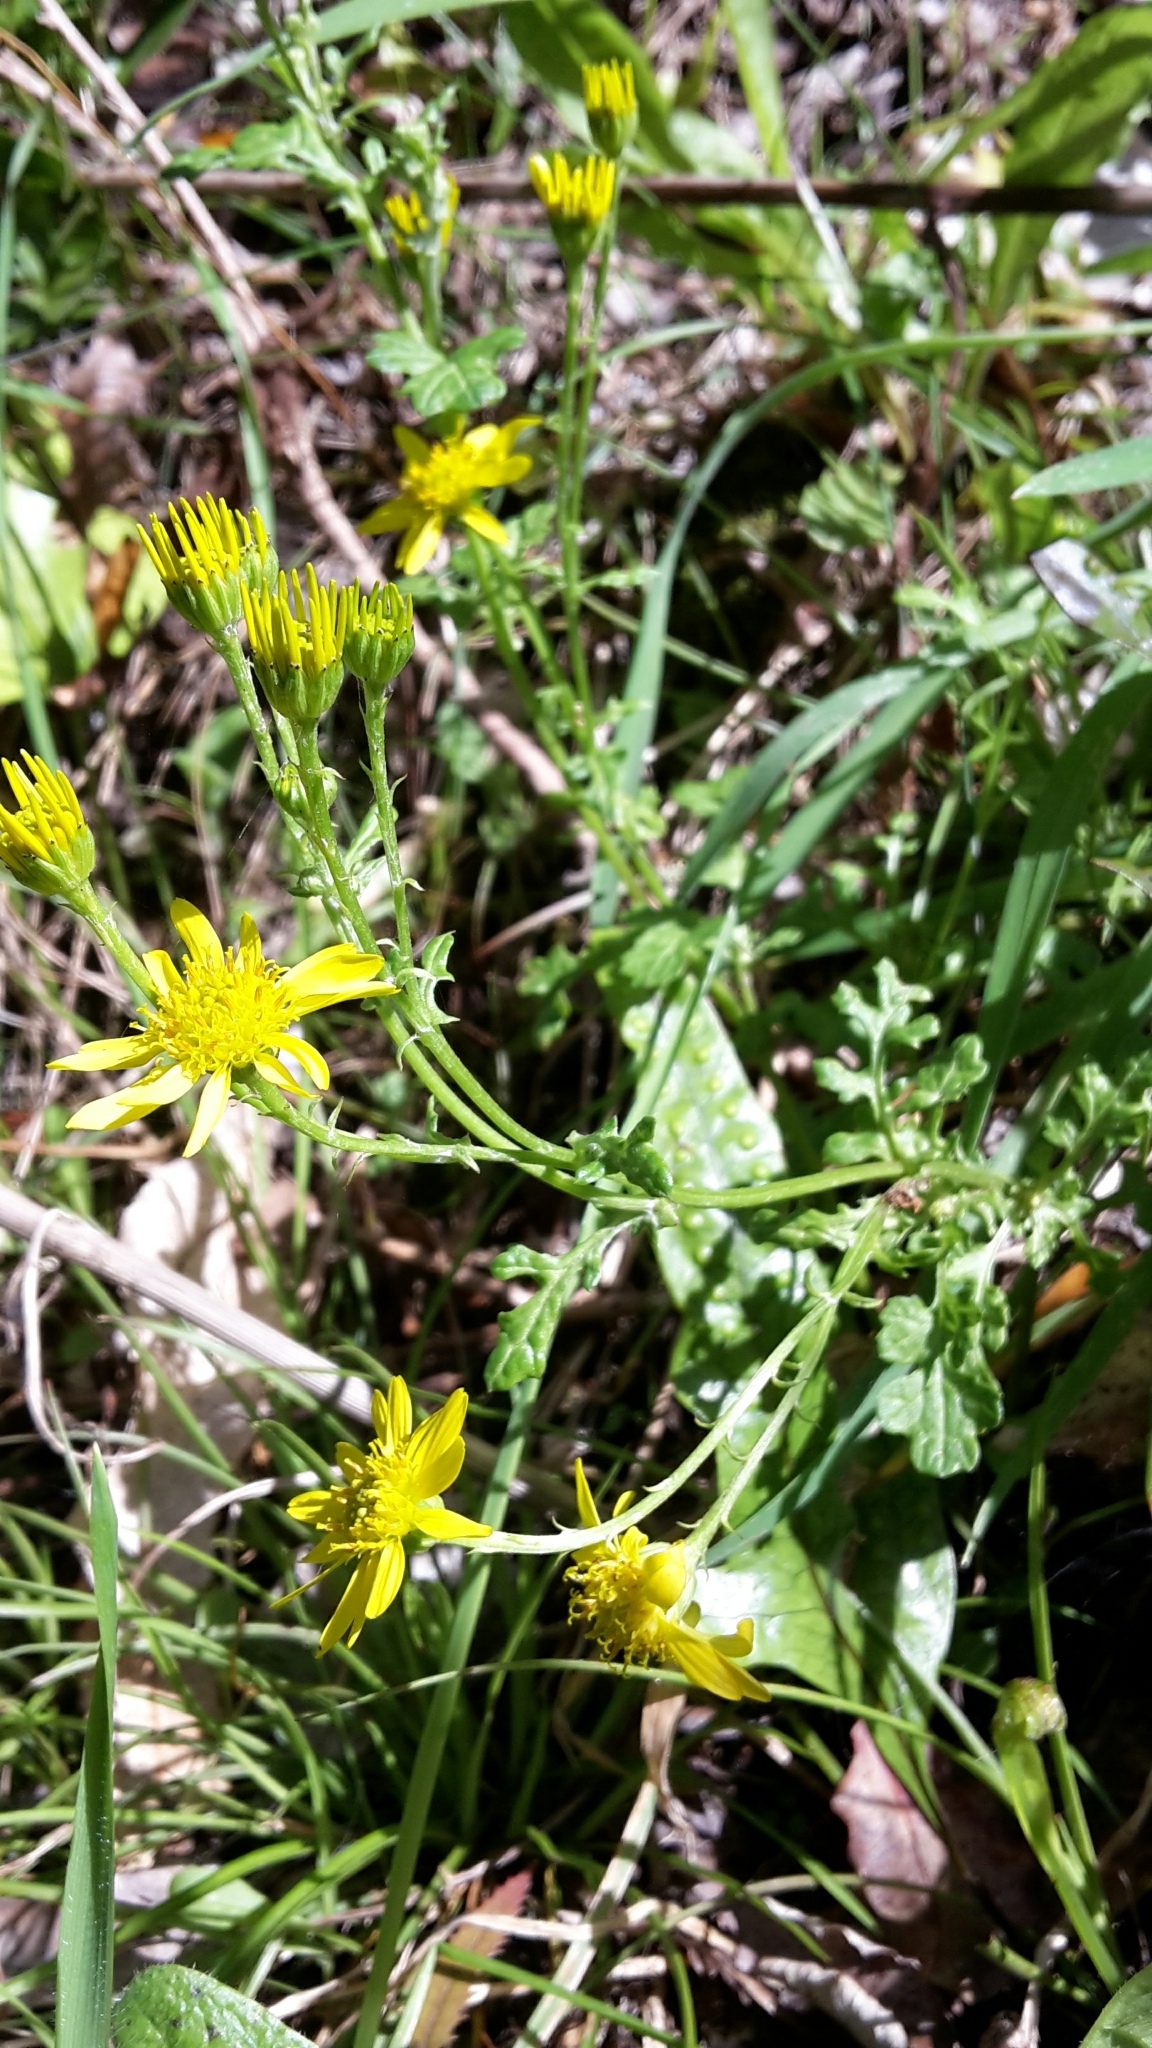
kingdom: Plantae
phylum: Tracheophyta
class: Magnoliopsida
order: Asterales
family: Asteraceae
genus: Jacobaea
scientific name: Jacobaea vulgaris
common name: Stinking willie
